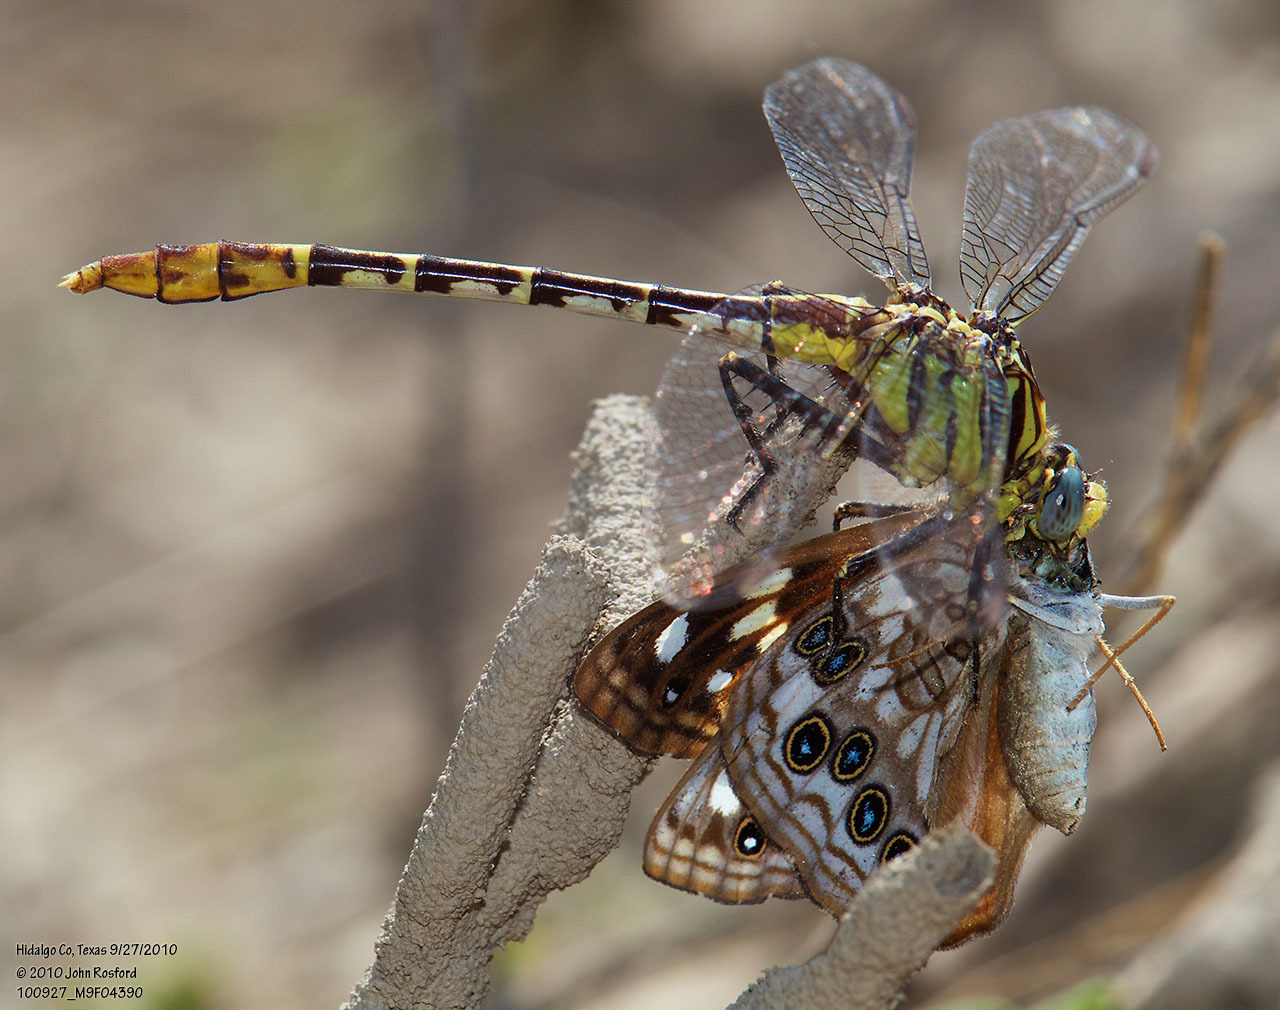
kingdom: Animalia
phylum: Arthropoda
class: Insecta
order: Odonata
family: Gomphidae
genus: Dromogomphus
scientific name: Dromogomphus spoliatus
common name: Flag-tailed spinyleg
